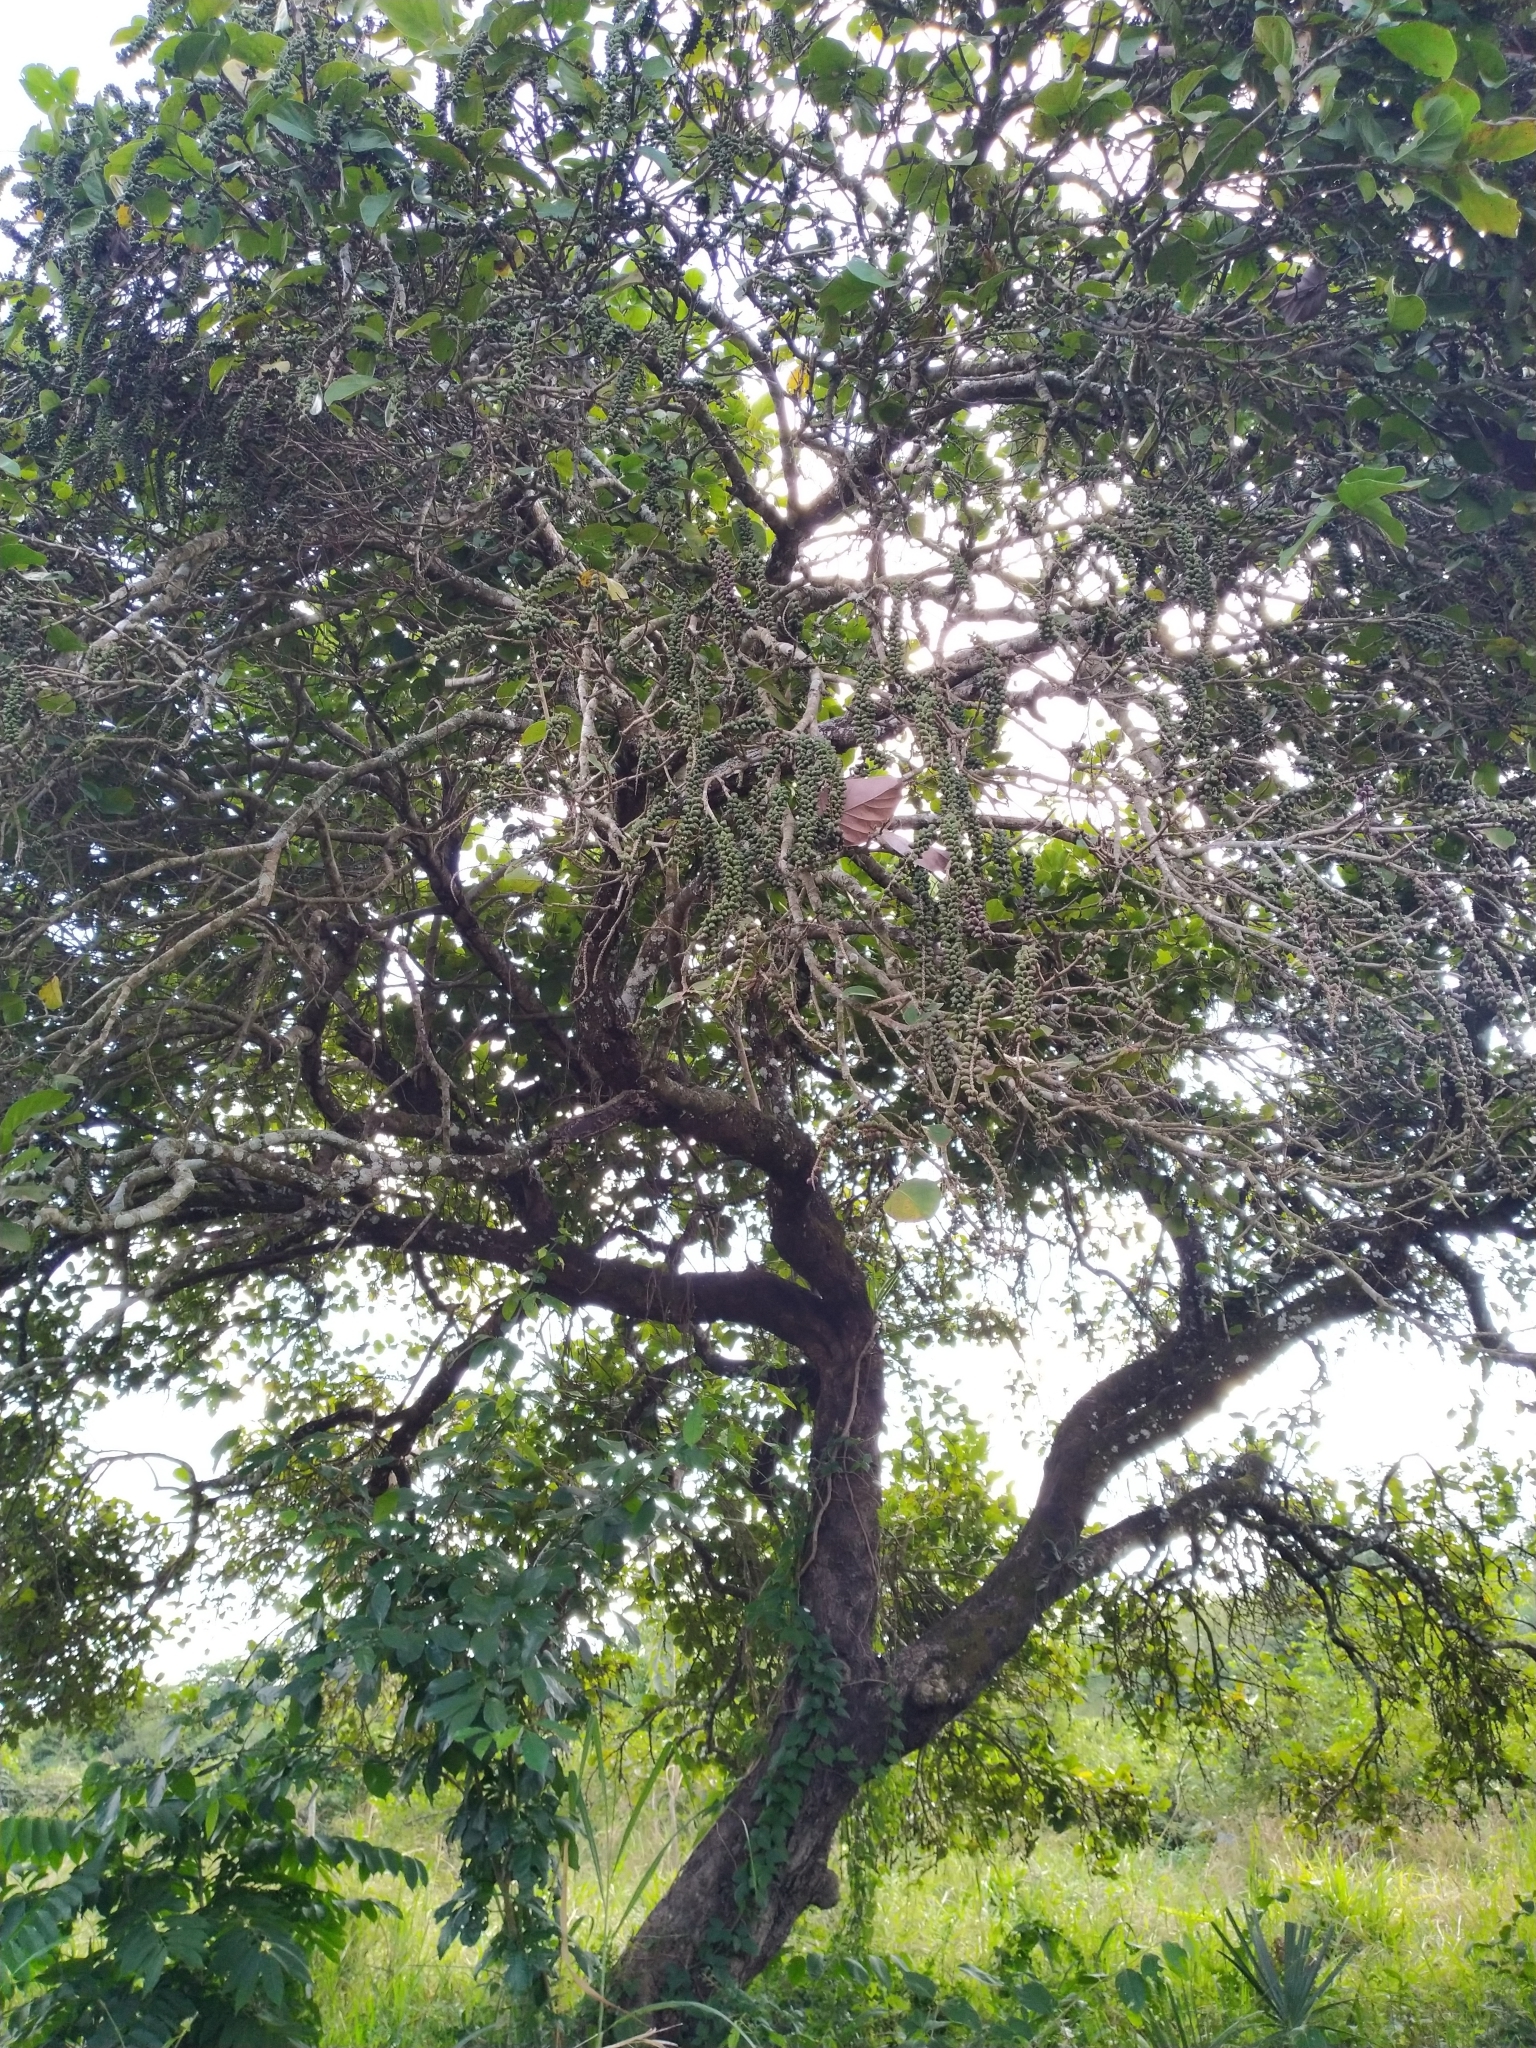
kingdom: Plantae
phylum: Tracheophyta
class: Magnoliopsida
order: Caryophyllales
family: Polygonaceae
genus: Coccoloba
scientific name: Coccoloba uvifera
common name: Seagrape
